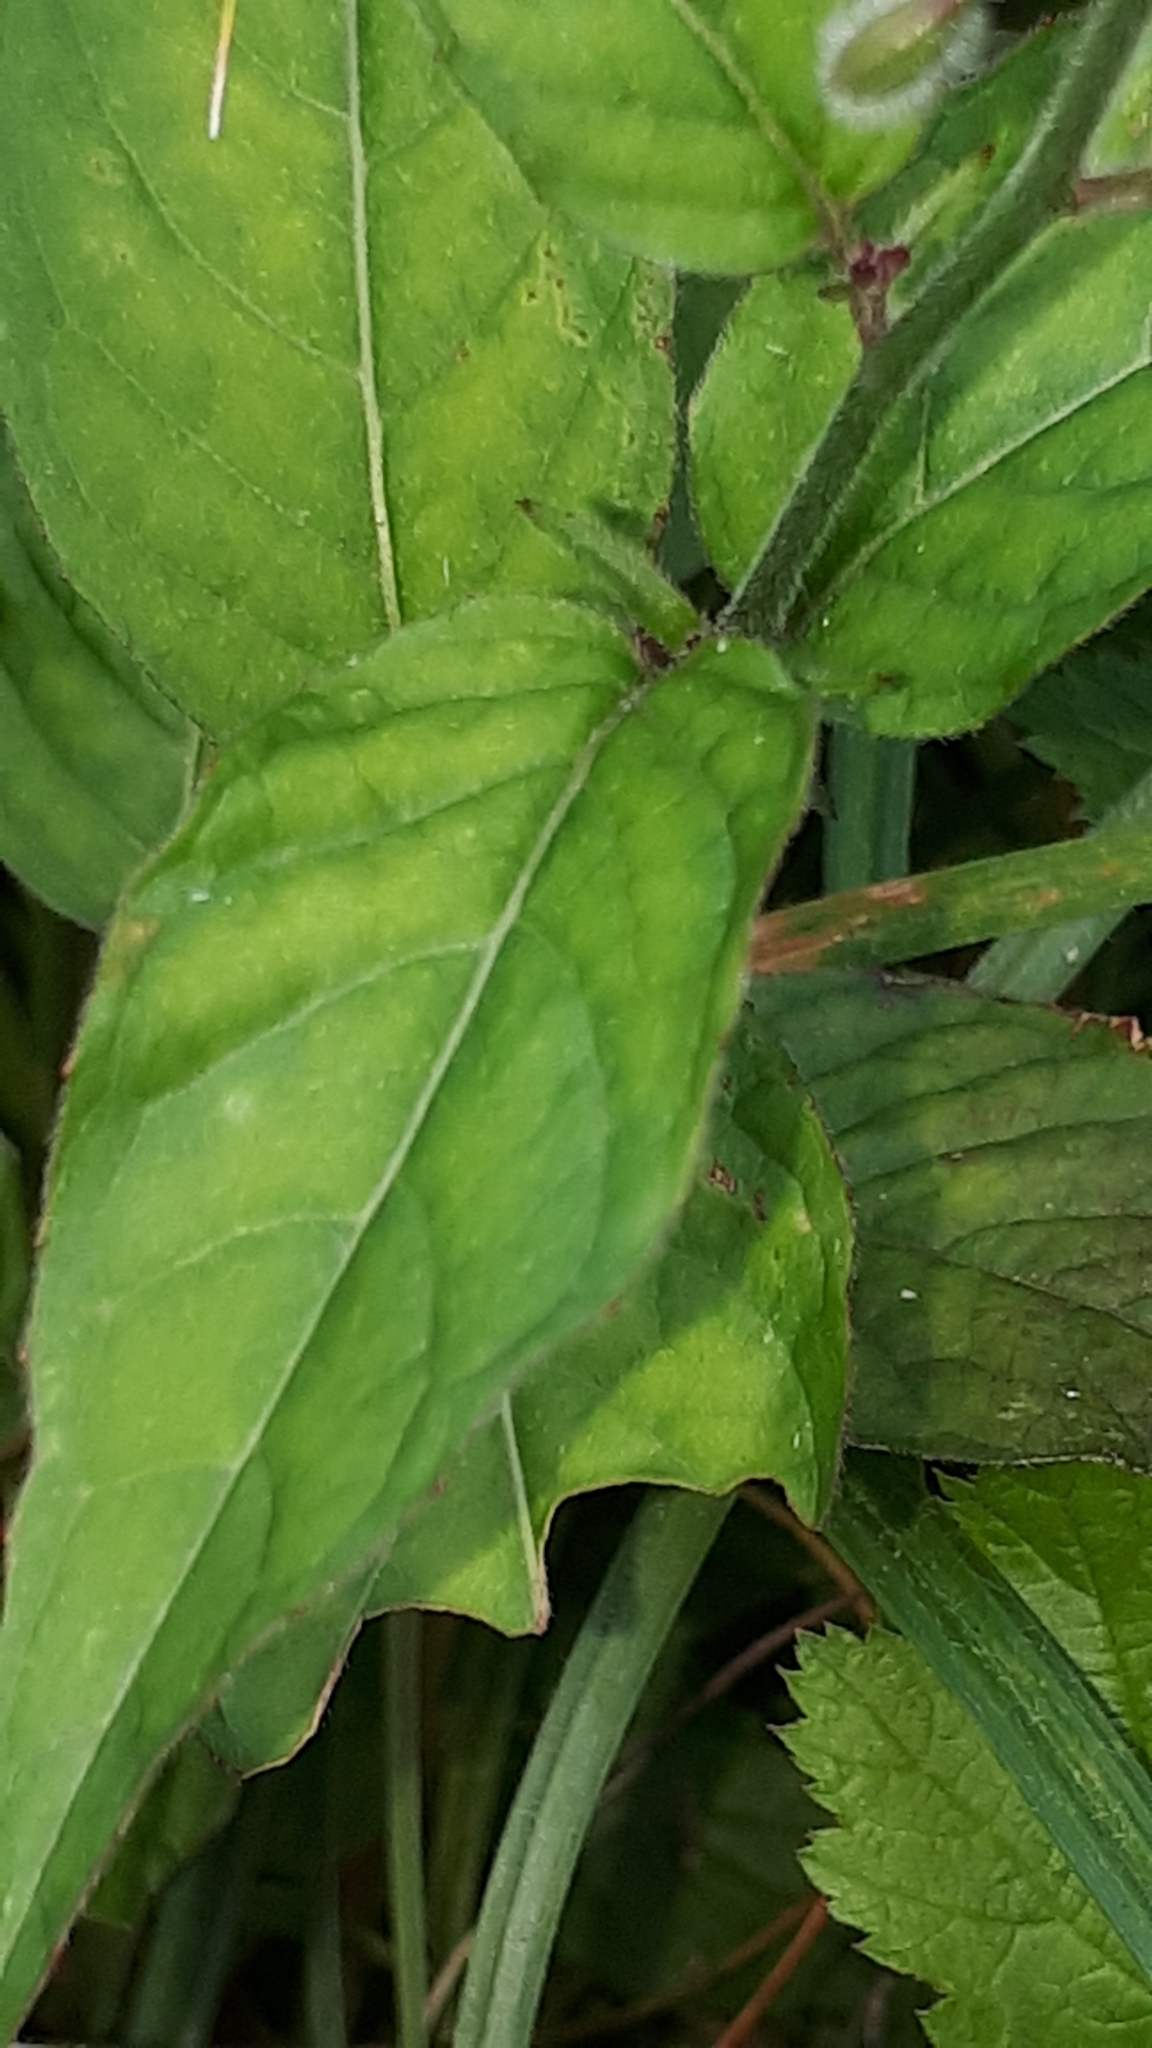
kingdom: Plantae
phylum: Tracheophyta
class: Magnoliopsida
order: Myrtales
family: Onagraceae
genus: Circaea
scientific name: Circaea lutetiana
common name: Enchanter's-nightshade
